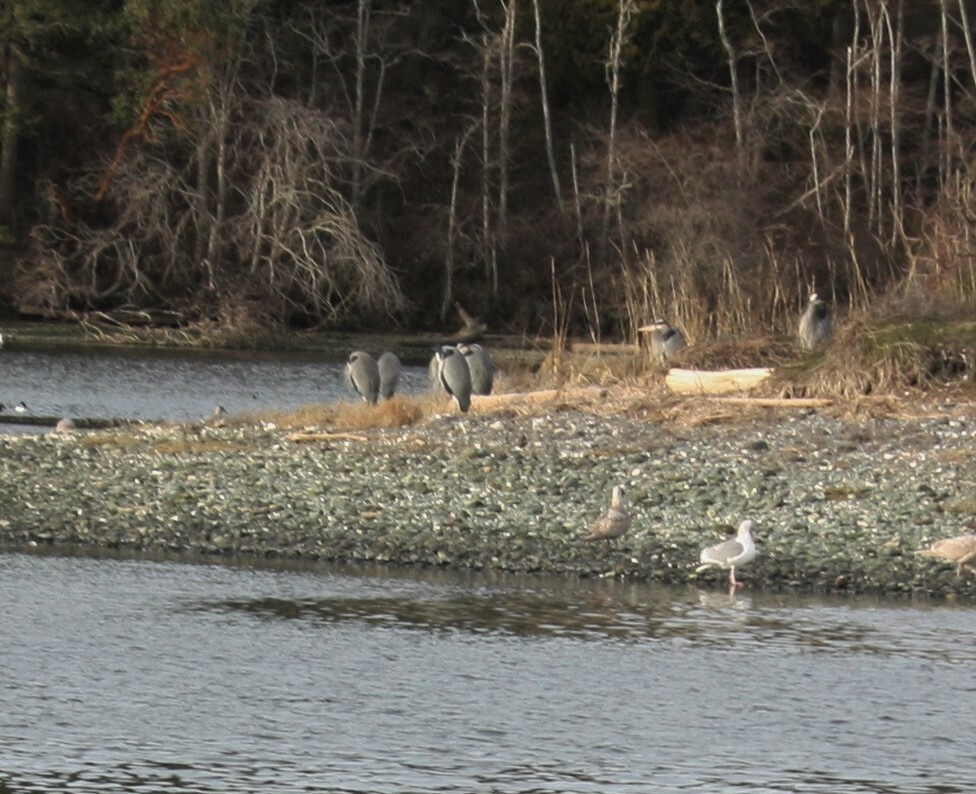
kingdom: Animalia
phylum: Chordata
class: Aves
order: Pelecaniformes
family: Ardeidae
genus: Ardea
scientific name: Ardea herodias
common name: Great blue heron
